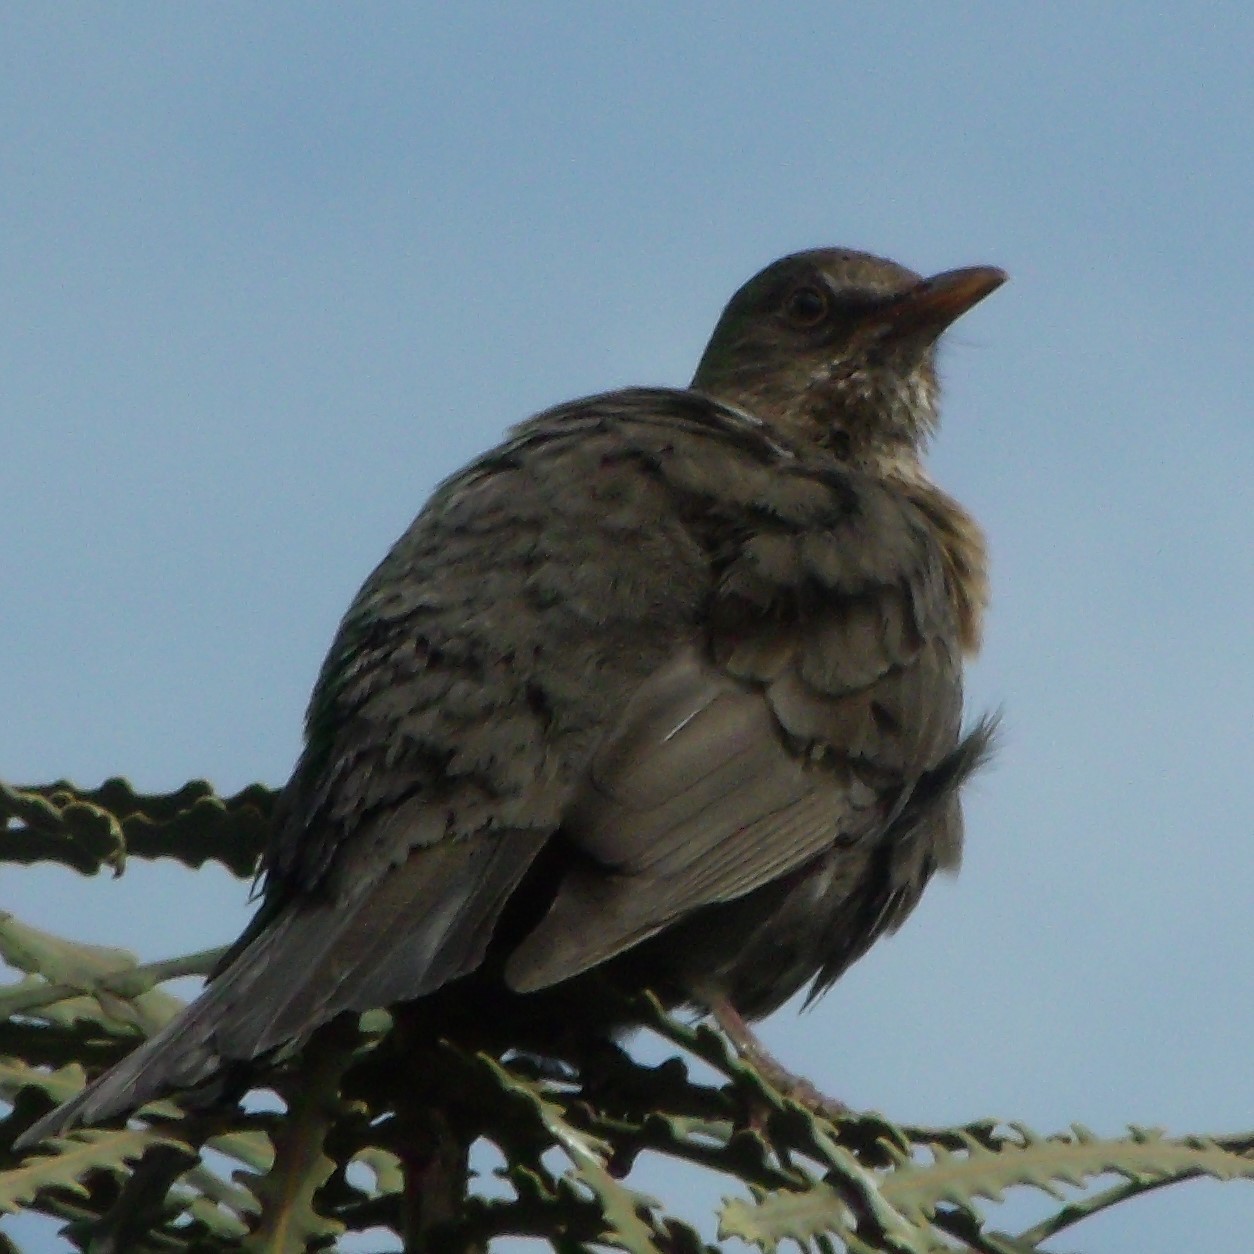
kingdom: Animalia
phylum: Chordata
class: Aves
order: Passeriformes
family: Turdidae
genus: Turdus
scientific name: Turdus merula
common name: Common blackbird
